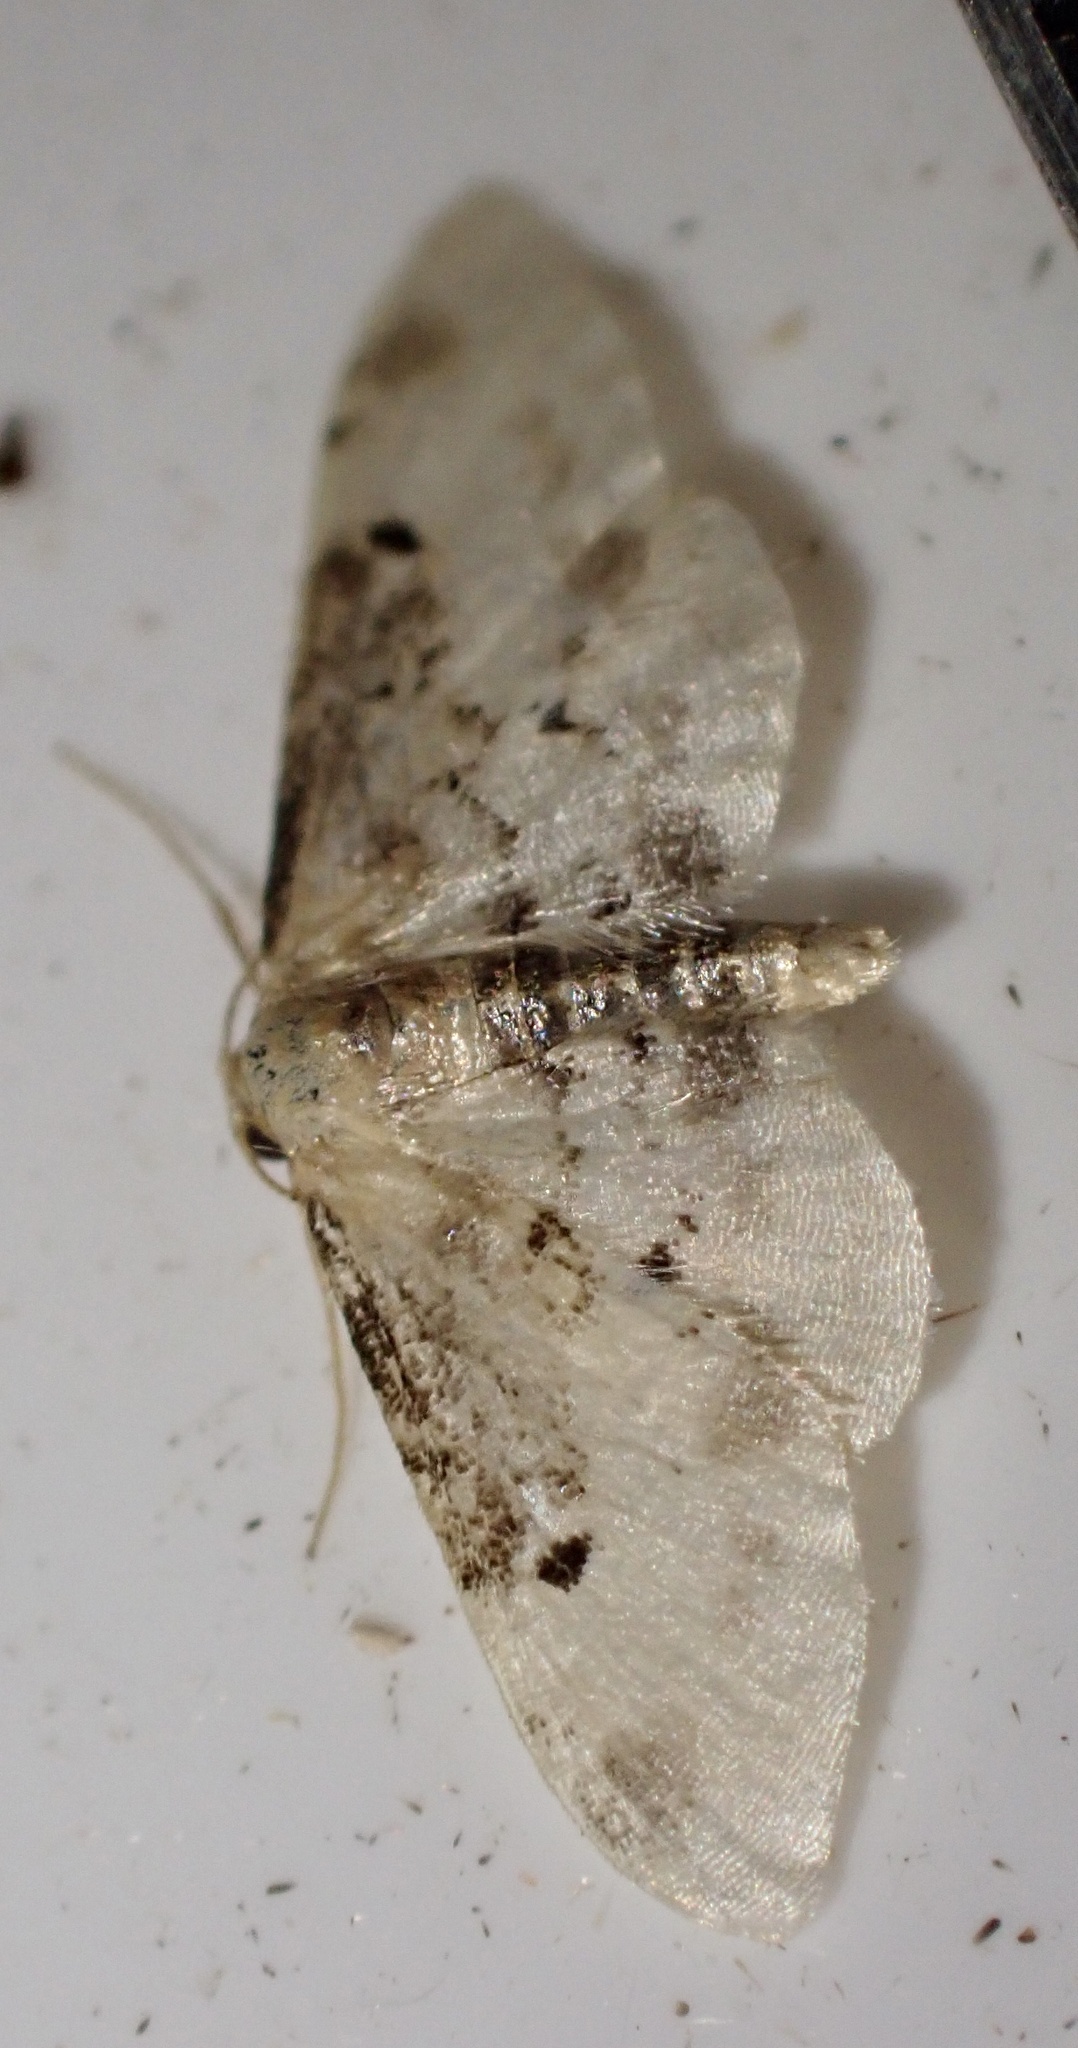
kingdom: Animalia
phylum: Arthropoda
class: Insecta
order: Lepidoptera
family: Geometridae
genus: Idaea
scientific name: Idaea filicata
